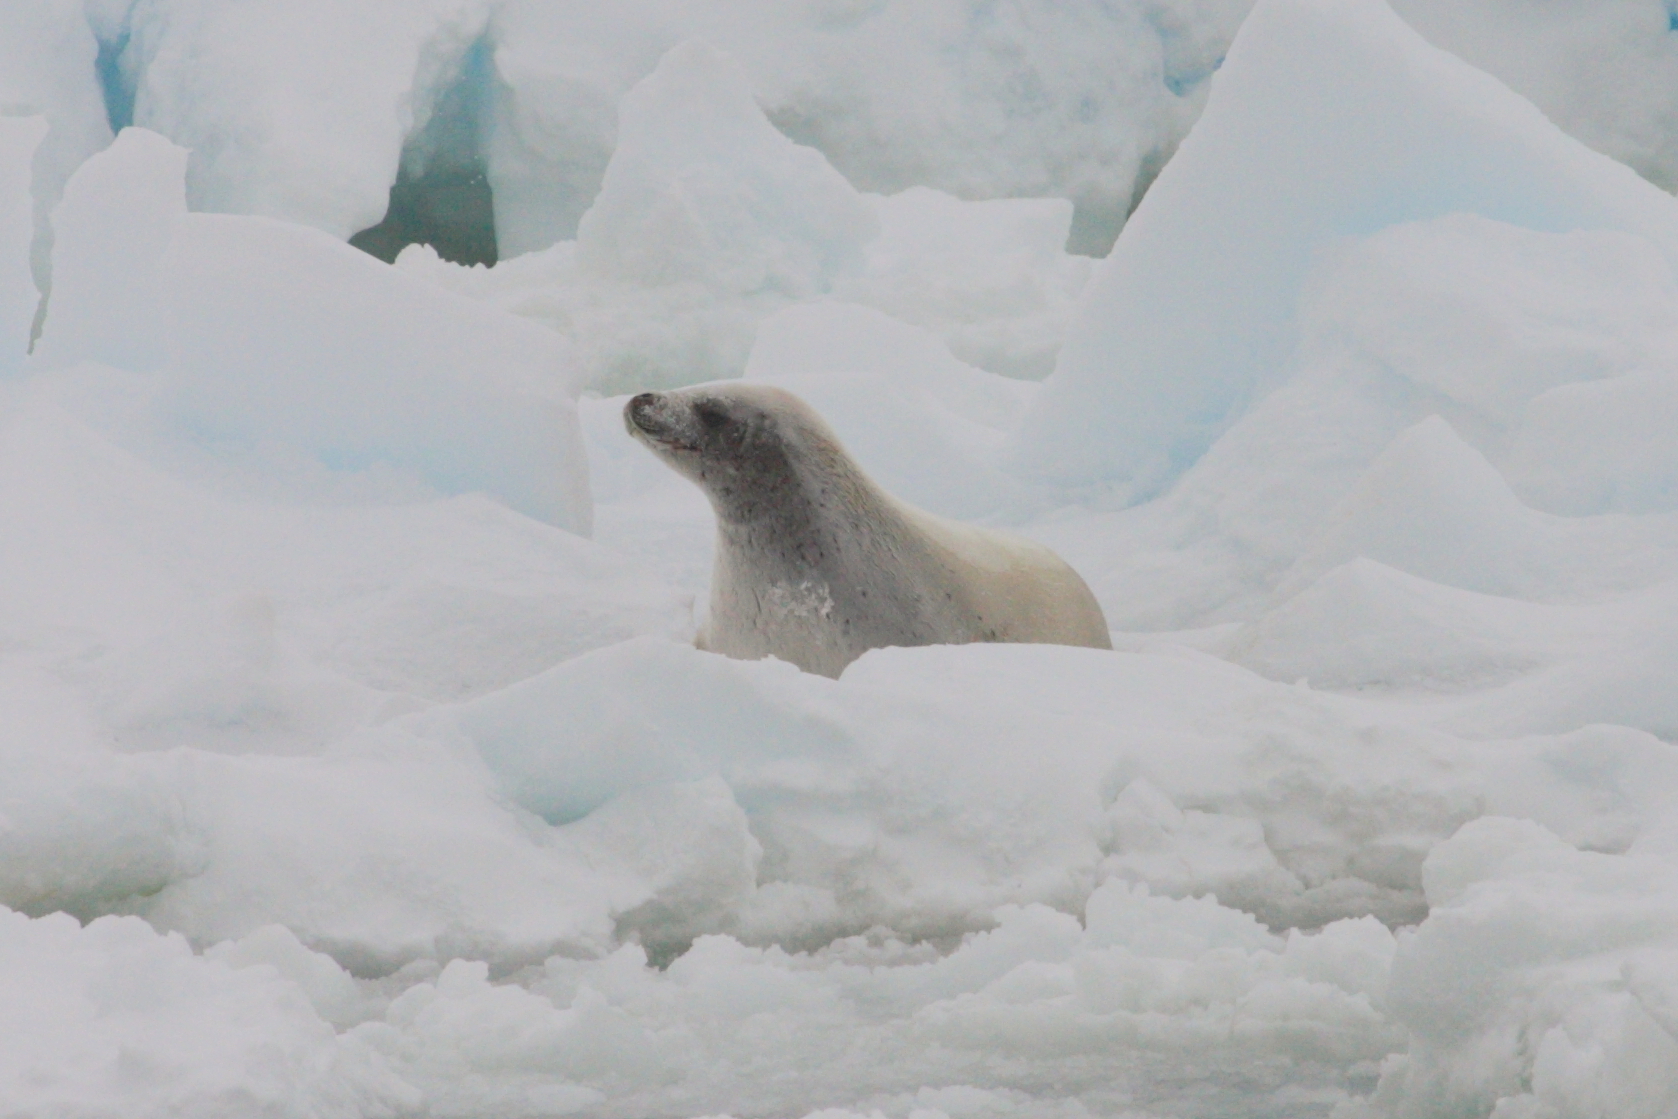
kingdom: Animalia
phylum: Chordata
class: Mammalia
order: Carnivora
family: Phocidae
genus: Lobodon
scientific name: Lobodon carcinophaga
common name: Crabeater seal
